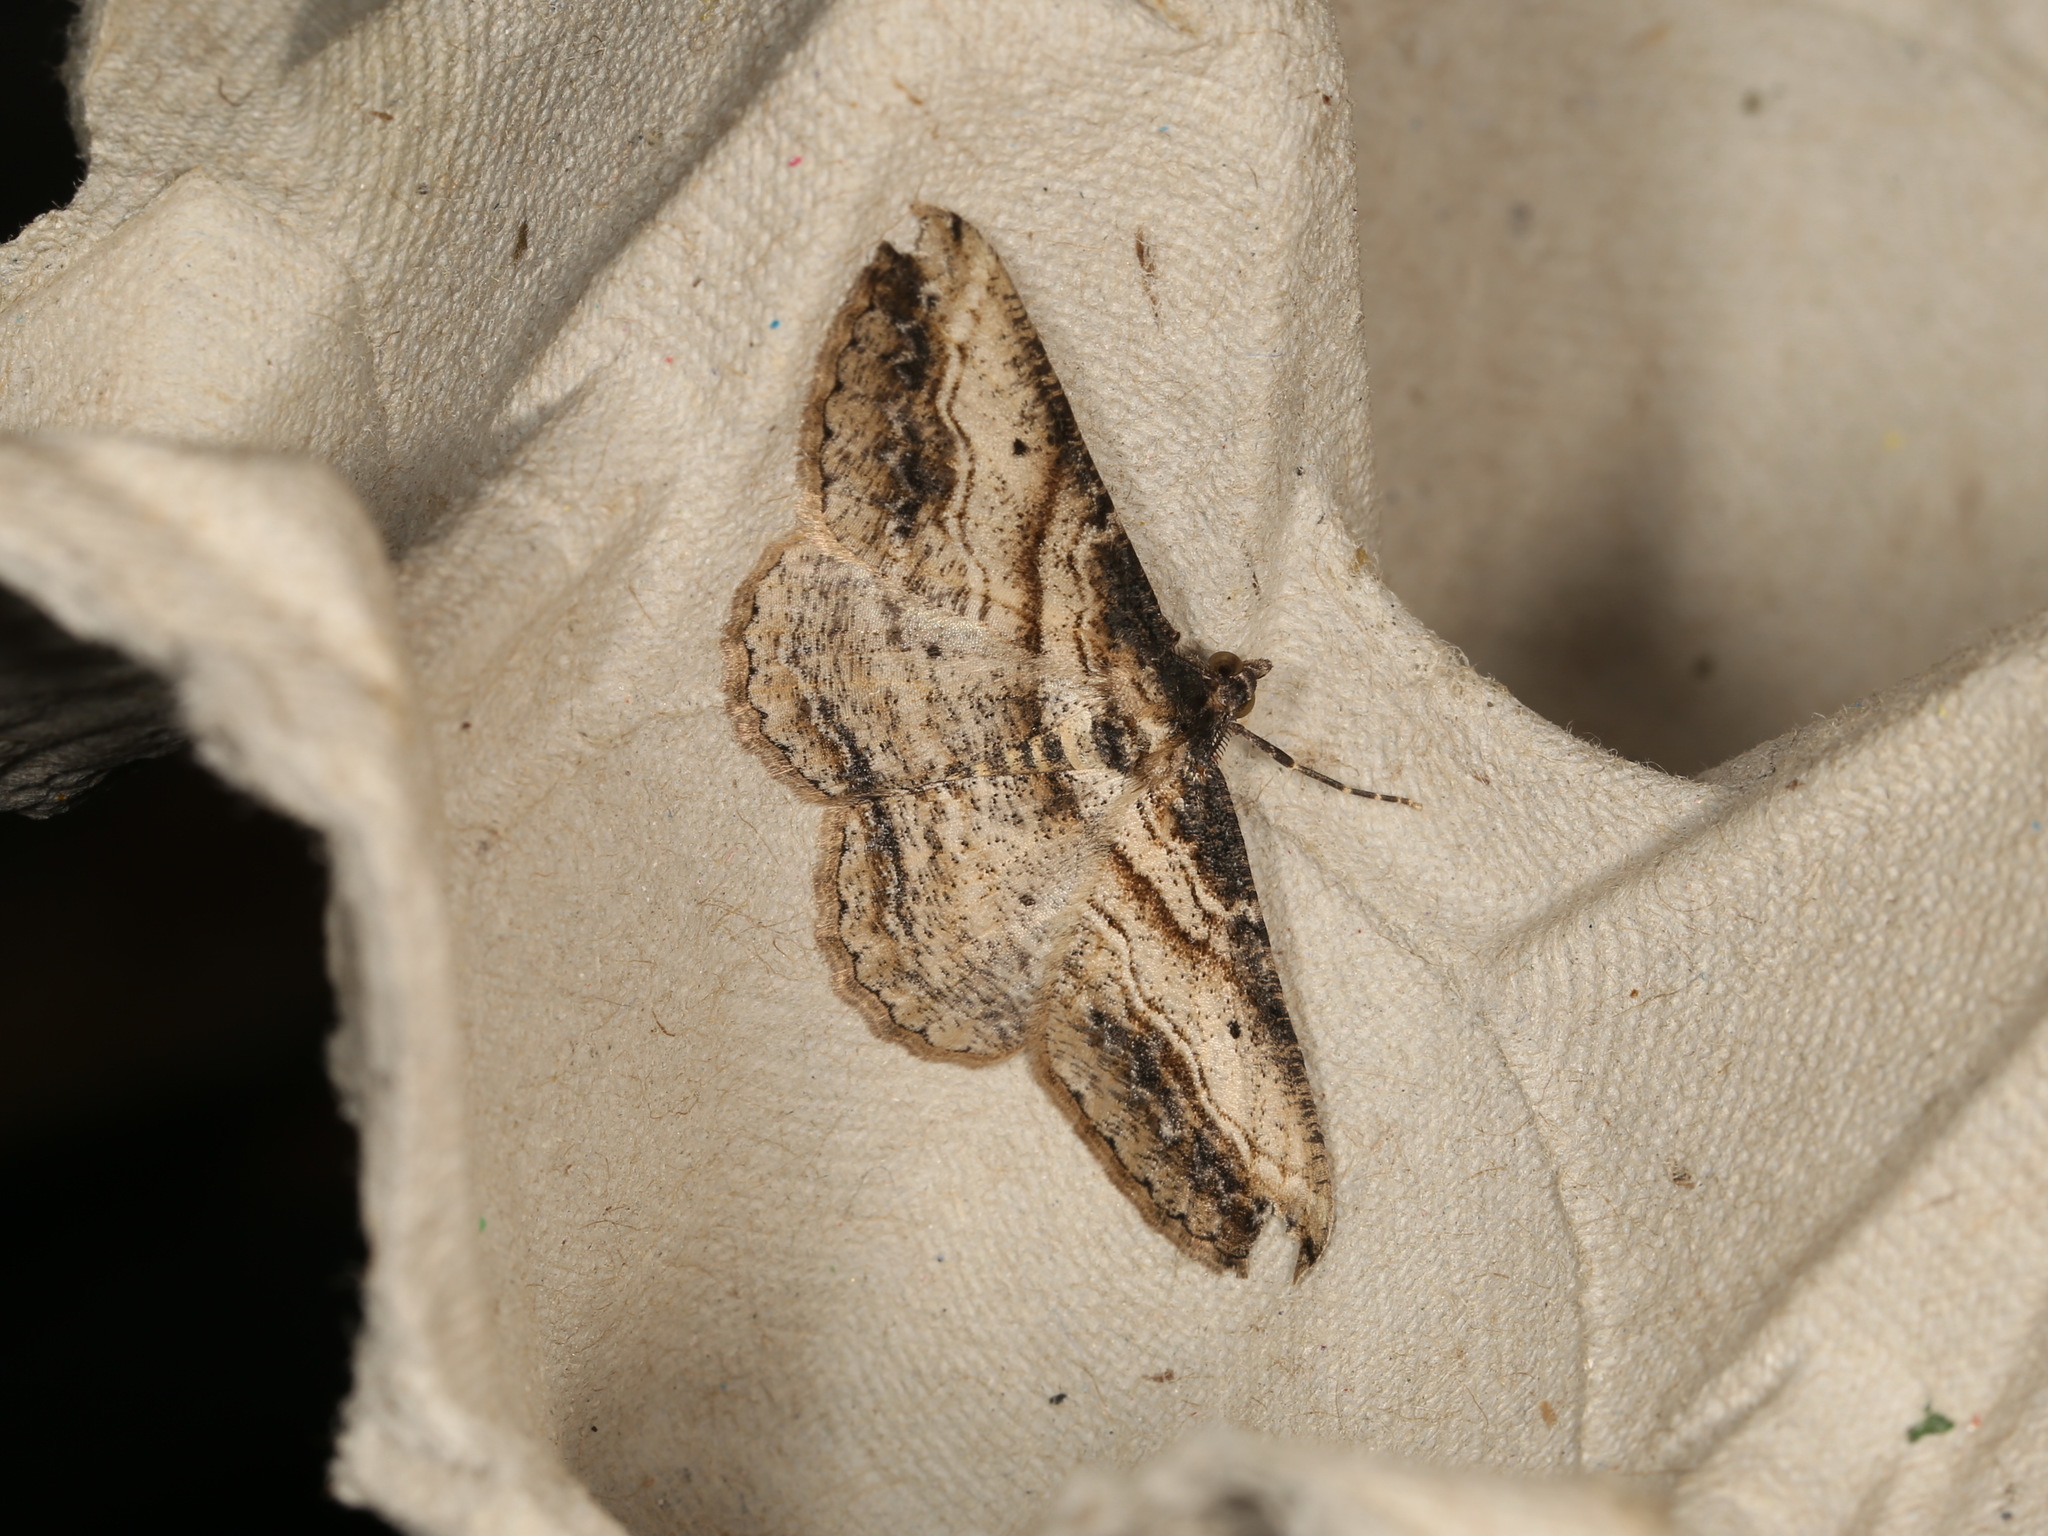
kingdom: Animalia
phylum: Arthropoda
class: Insecta
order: Lepidoptera
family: Geometridae
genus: Syneora
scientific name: Syneora euboliaria
